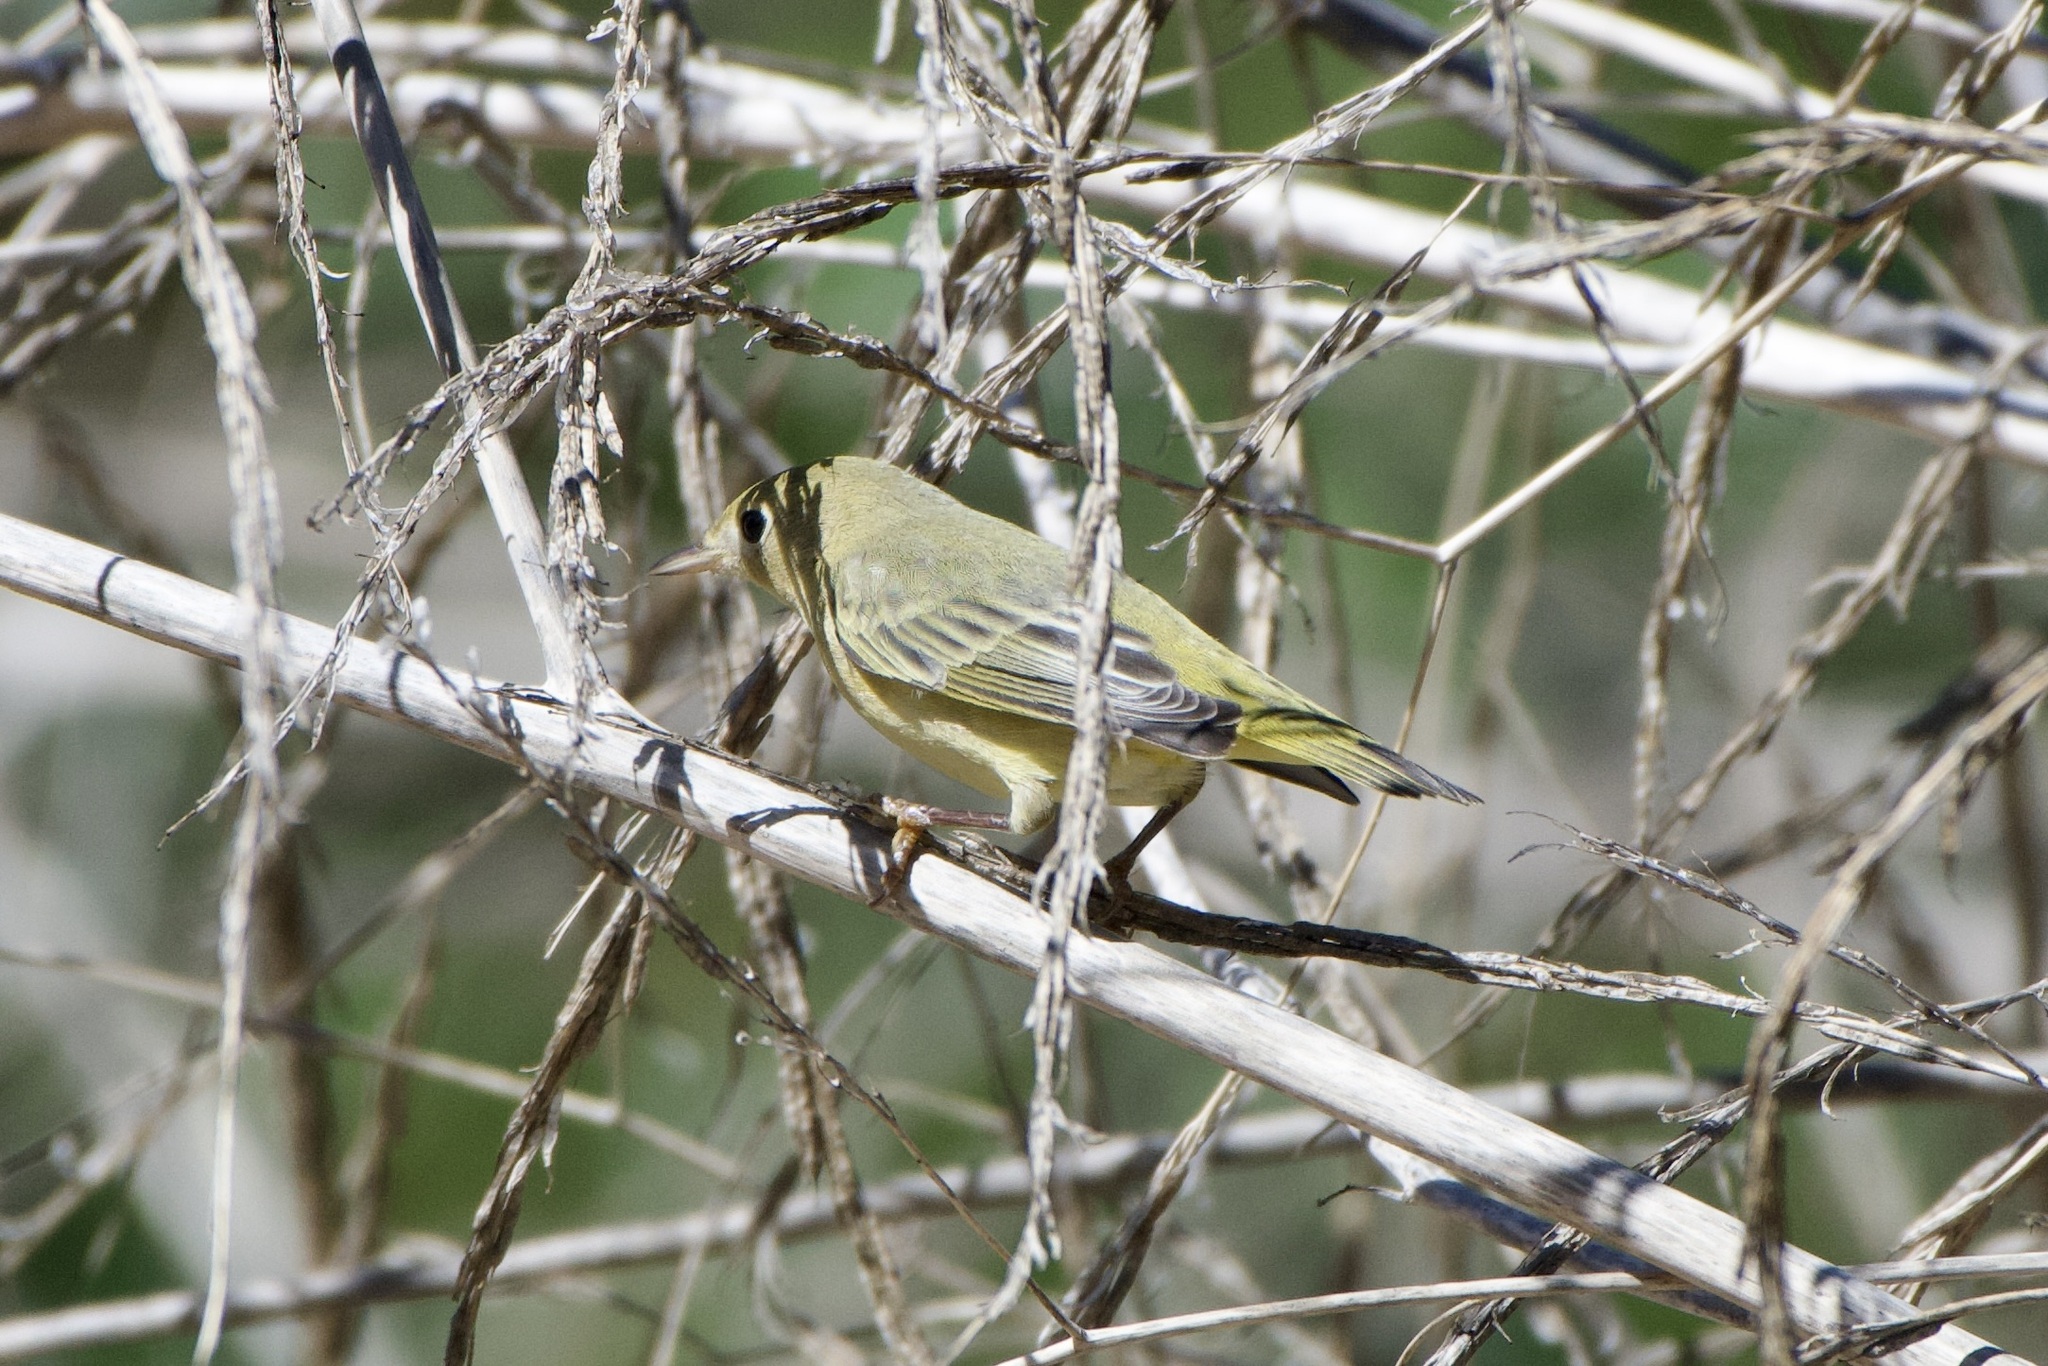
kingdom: Animalia
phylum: Chordata
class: Aves
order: Passeriformes
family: Parulidae
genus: Setophaga
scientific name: Setophaga petechia
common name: Yellow warbler
